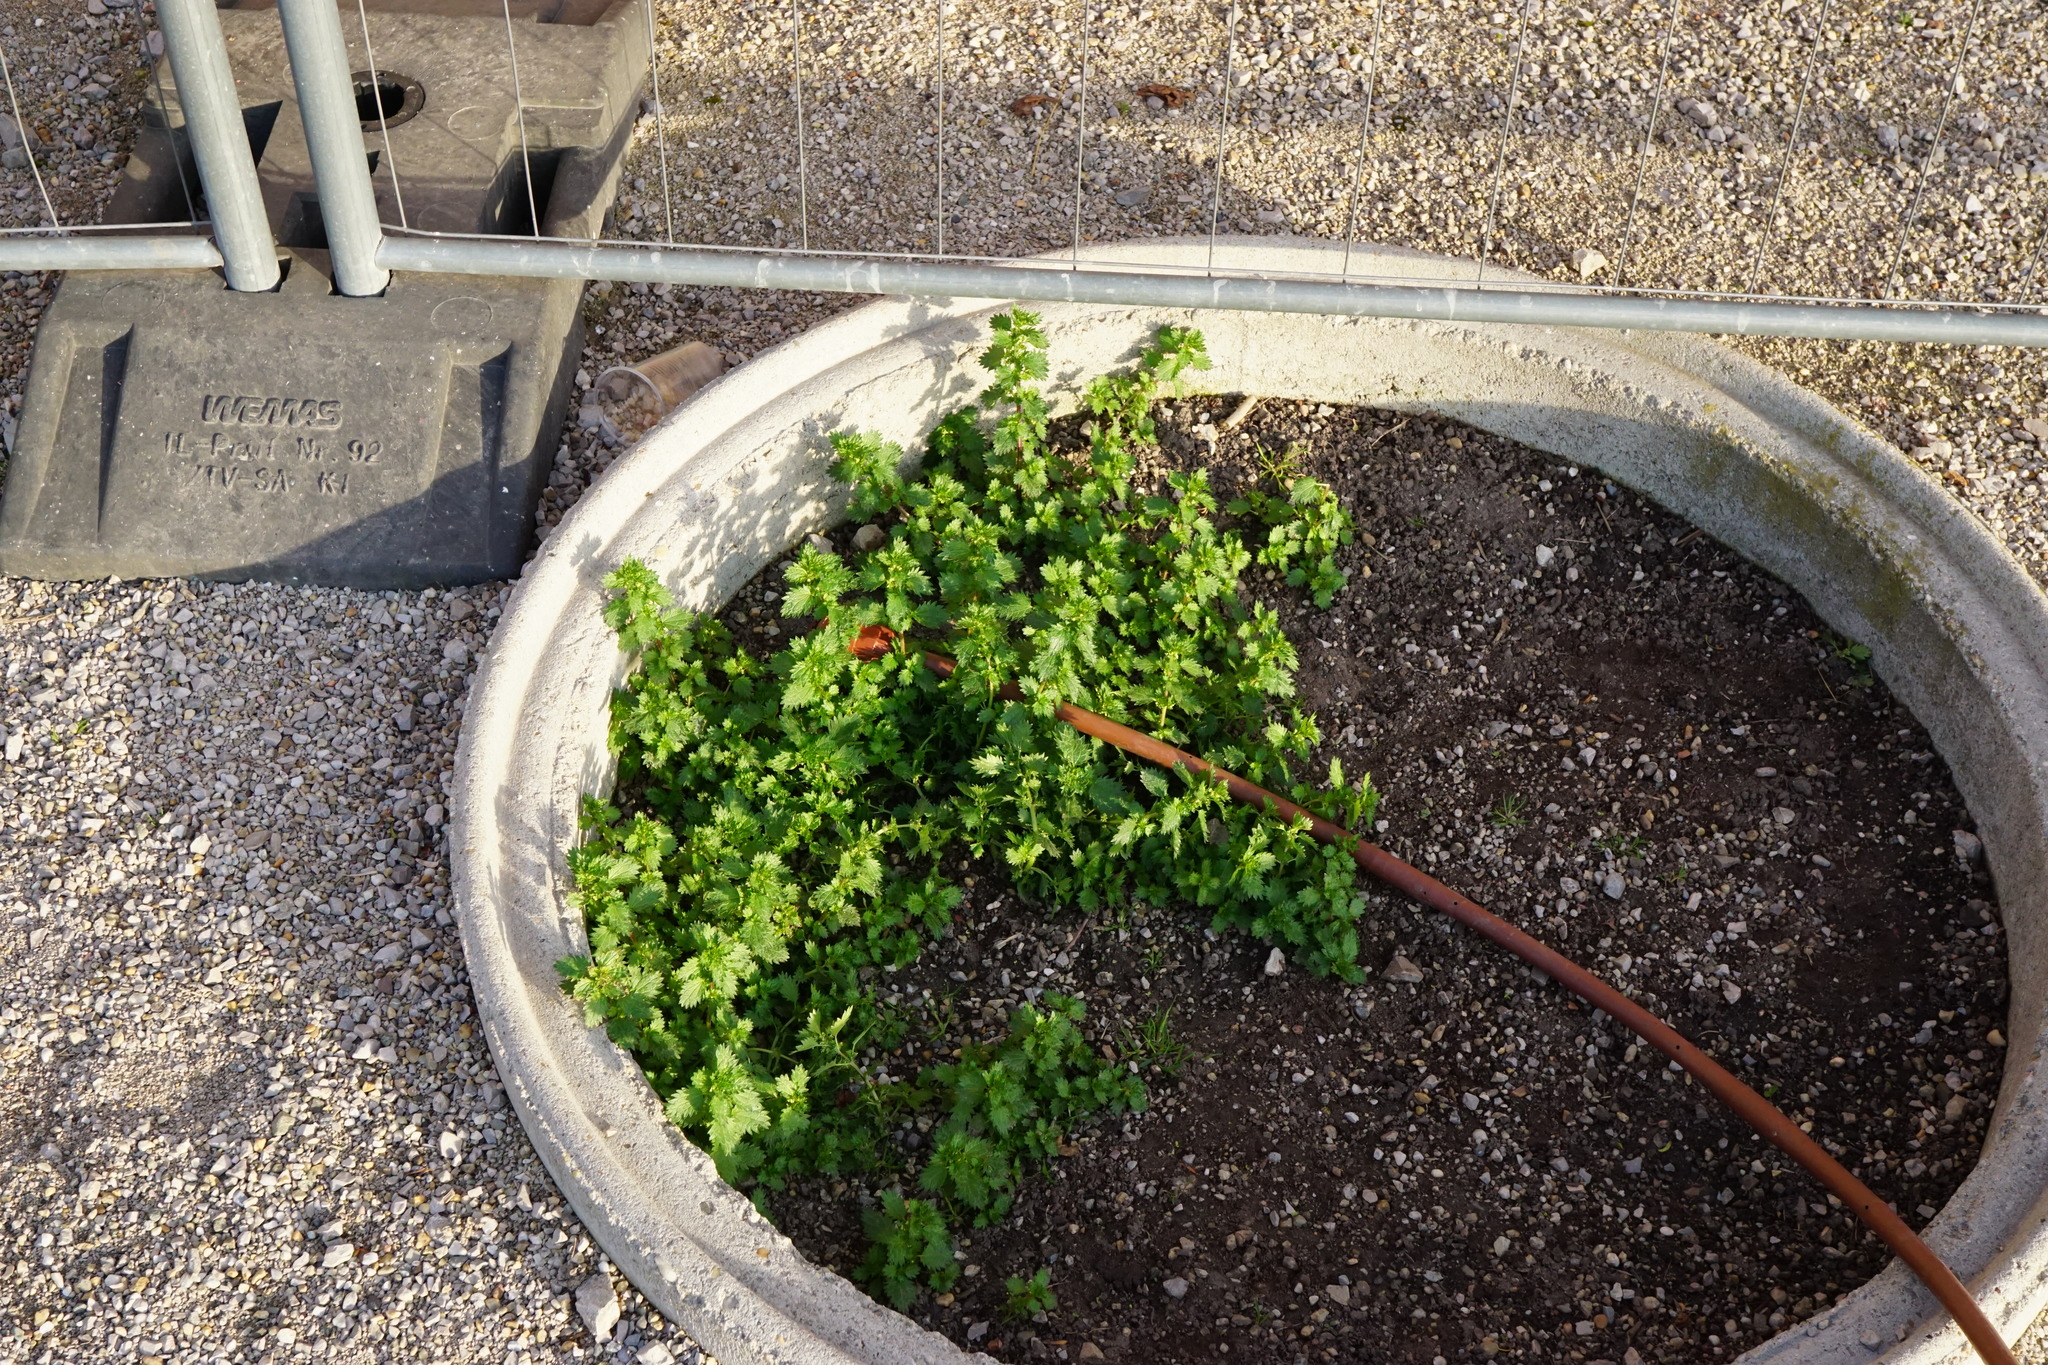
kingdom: Plantae
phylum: Tracheophyta
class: Magnoliopsida
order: Rosales
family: Urticaceae
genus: Urtica
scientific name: Urtica urens
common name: Dwarf nettle
